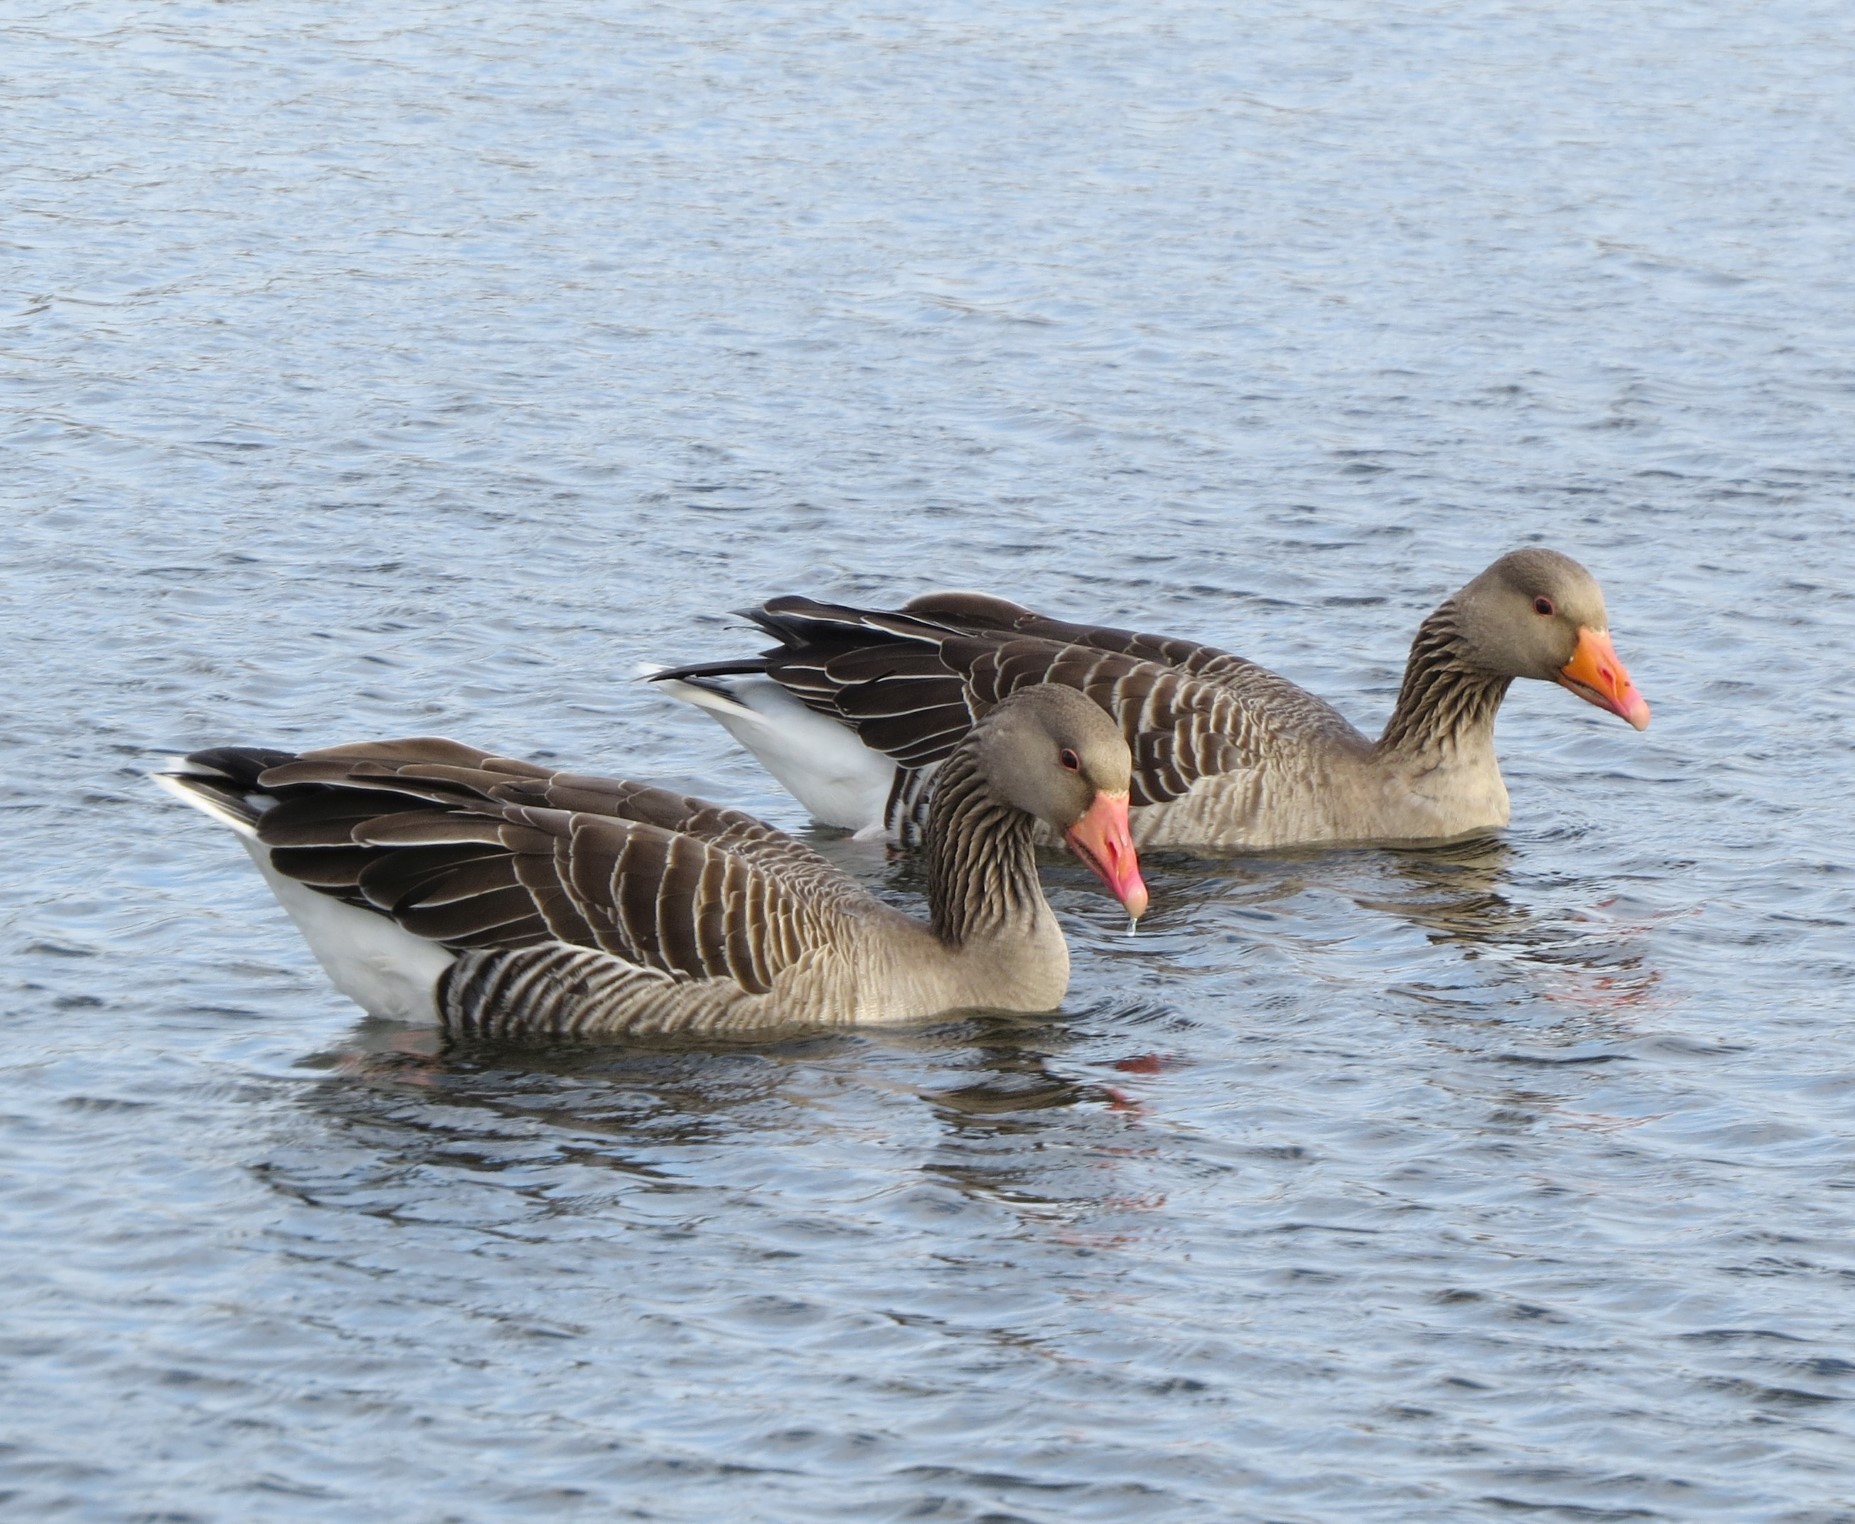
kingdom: Animalia
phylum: Chordata
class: Aves
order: Anseriformes
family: Anatidae
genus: Anser
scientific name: Anser anser
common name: Greylag goose
